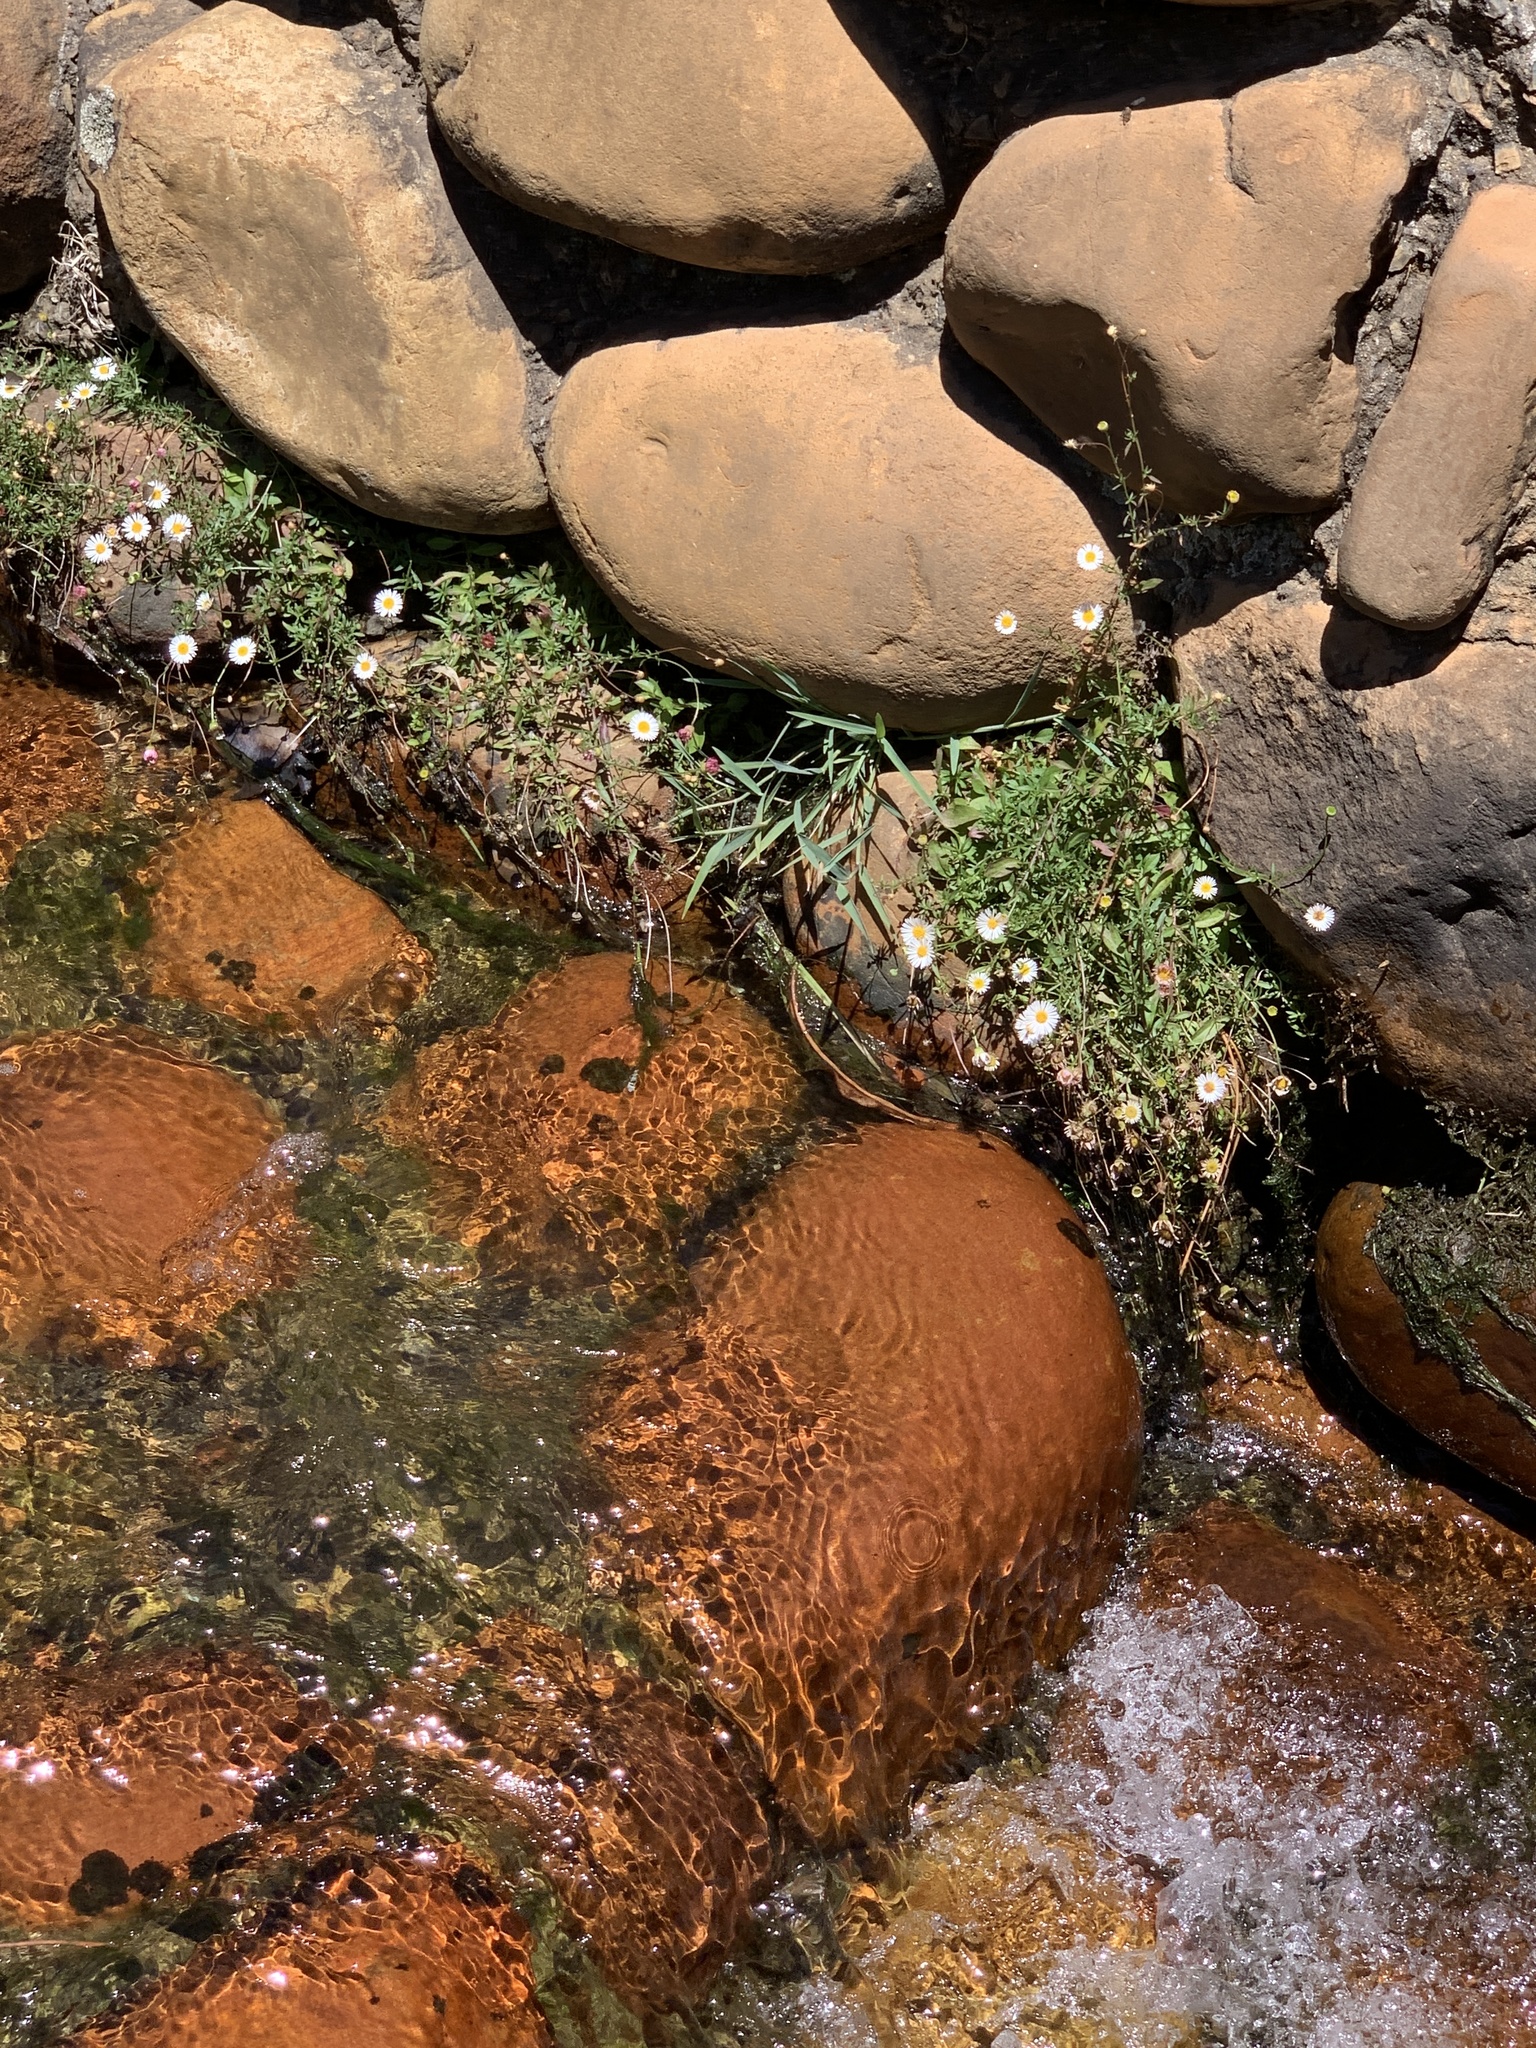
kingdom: Plantae
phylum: Tracheophyta
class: Magnoliopsida
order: Asterales
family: Asteraceae
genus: Erigeron
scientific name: Erigeron karvinskianus
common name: Mexican fleabane
